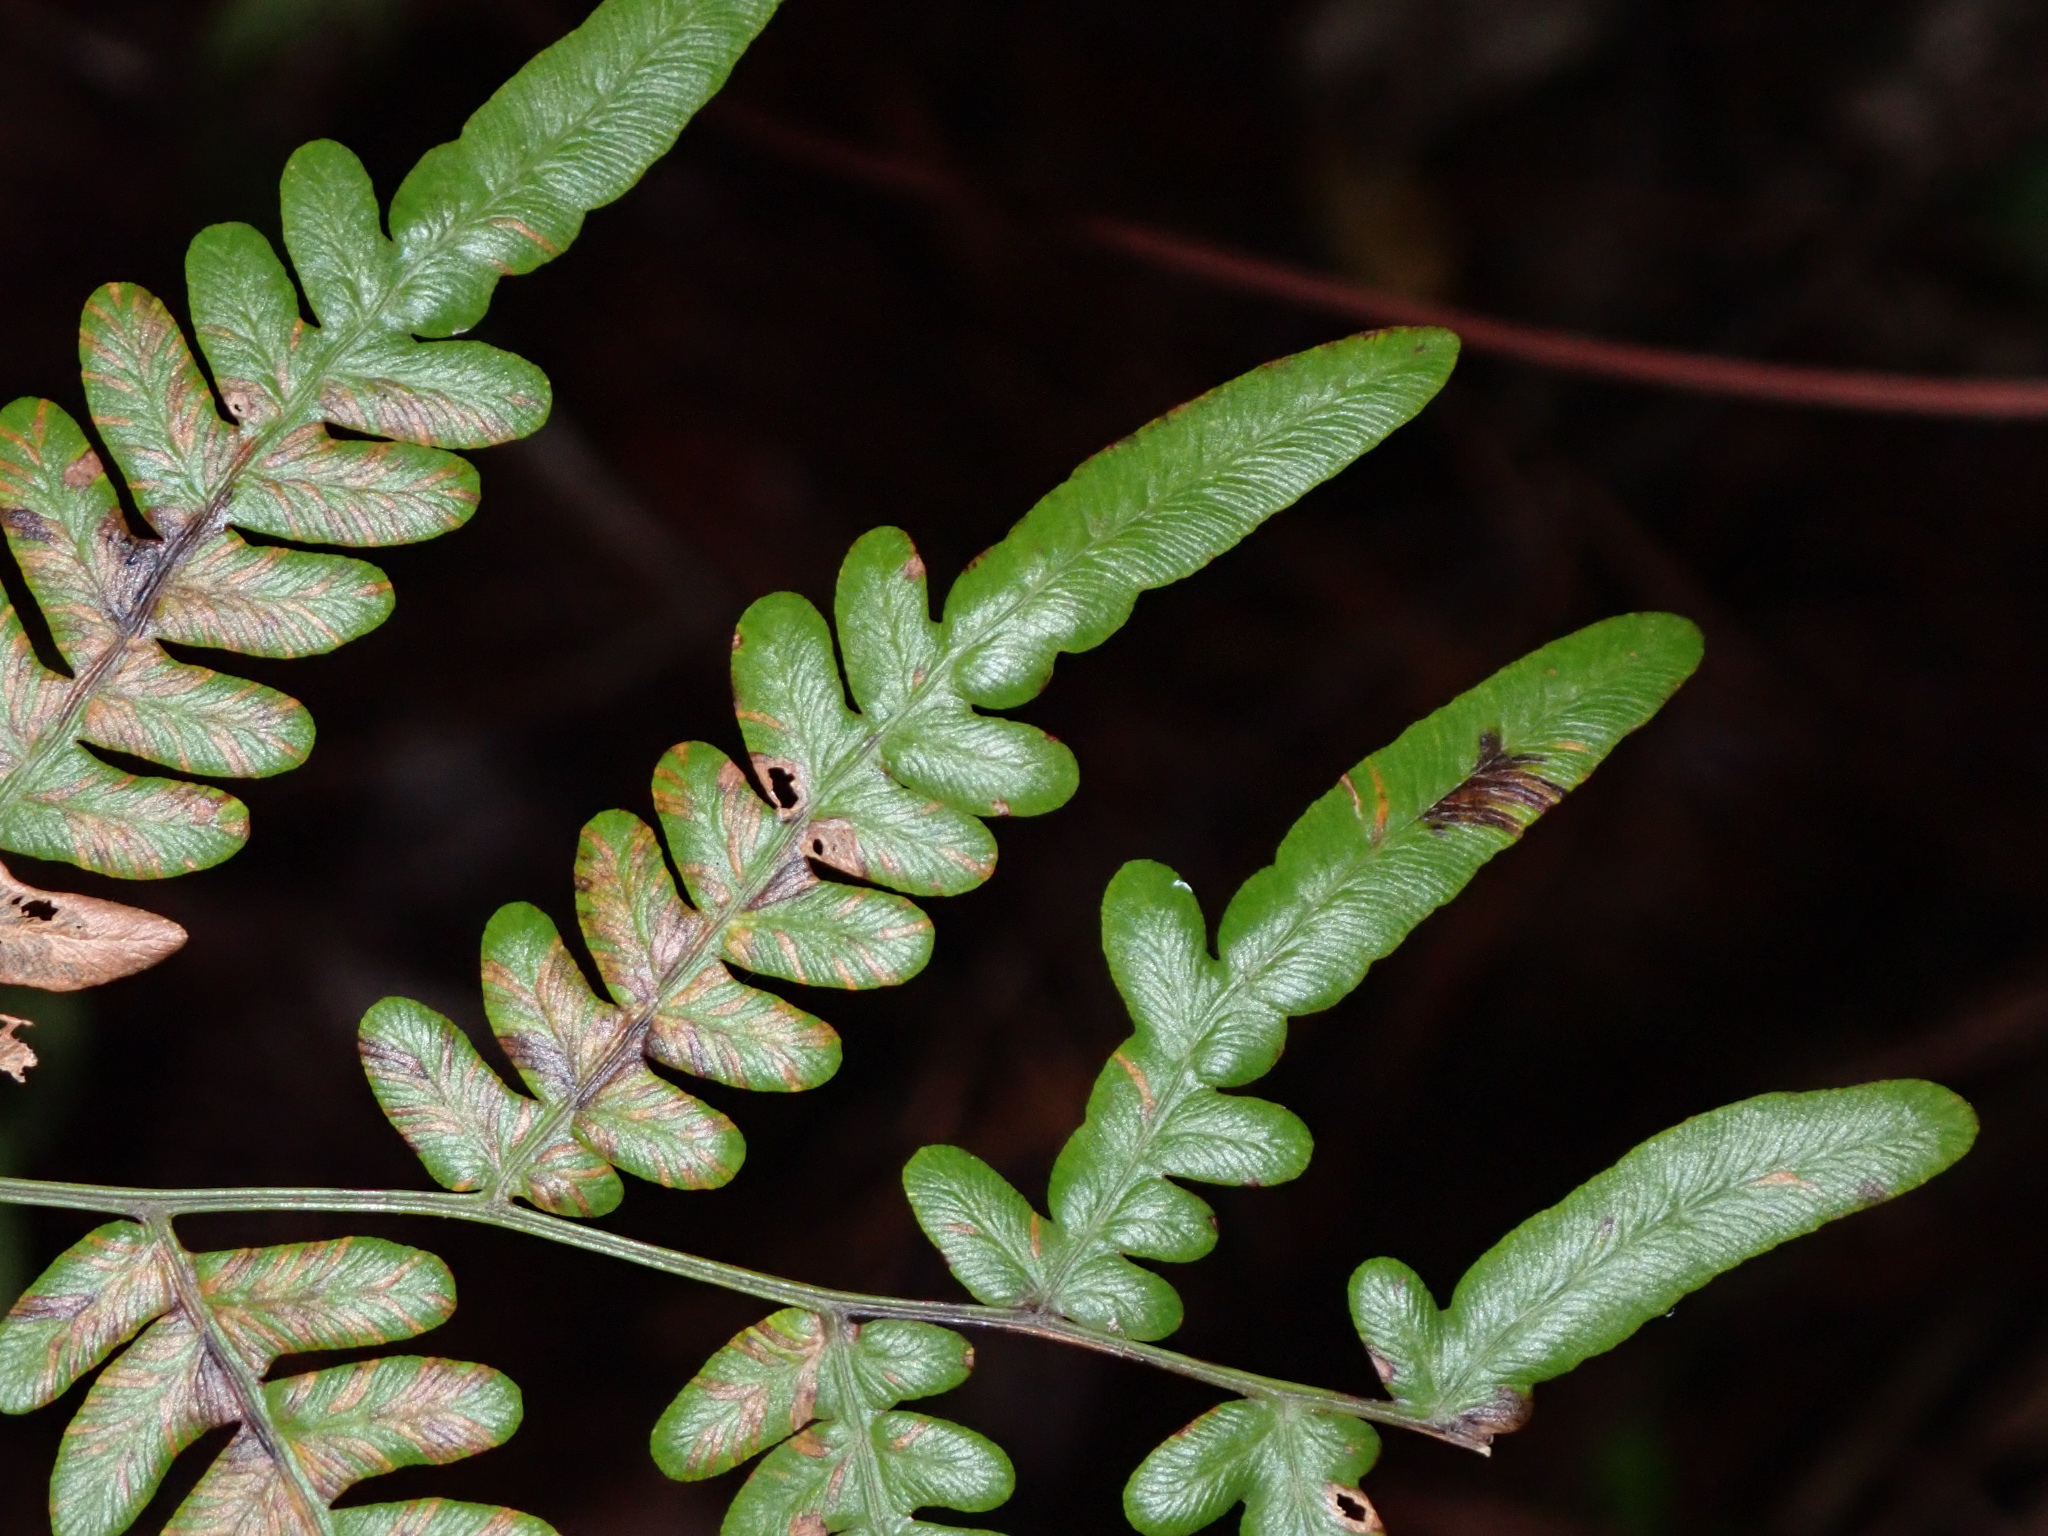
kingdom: Plantae
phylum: Tracheophyta
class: Polypodiopsida
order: Polypodiales
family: Dennstaedtiaceae
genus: Pteridium
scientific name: Pteridium
